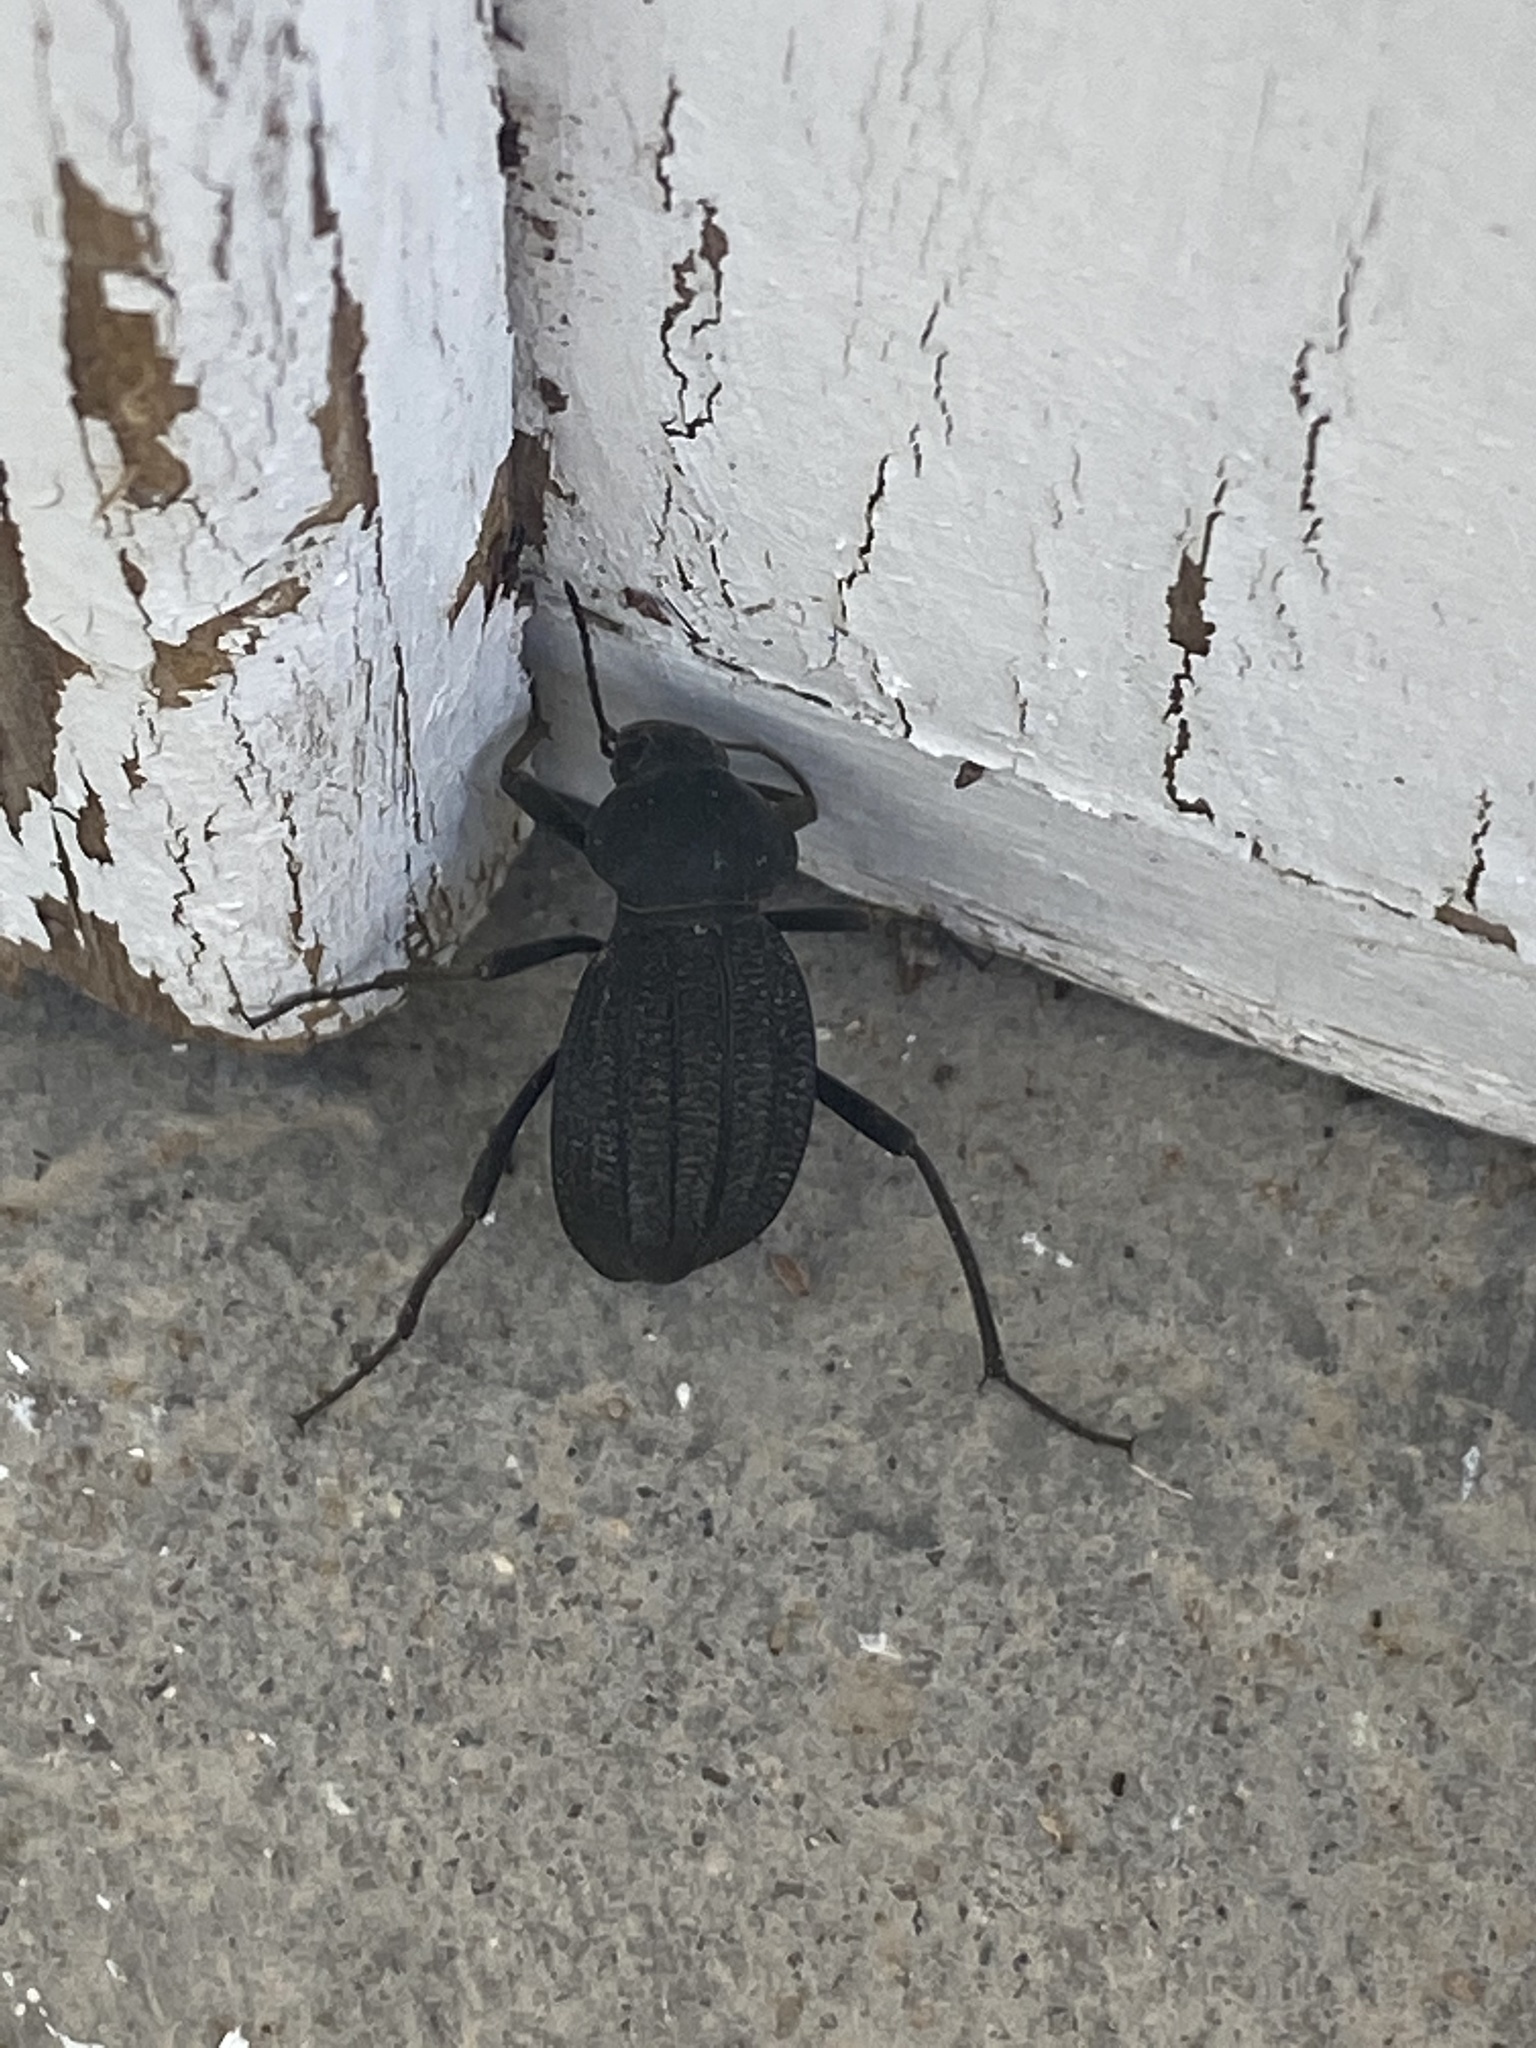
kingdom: Animalia
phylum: Arthropoda
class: Insecta
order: Coleoptera
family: Tenebrionidae
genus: Somaticus
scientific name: Somaticus aeneus
